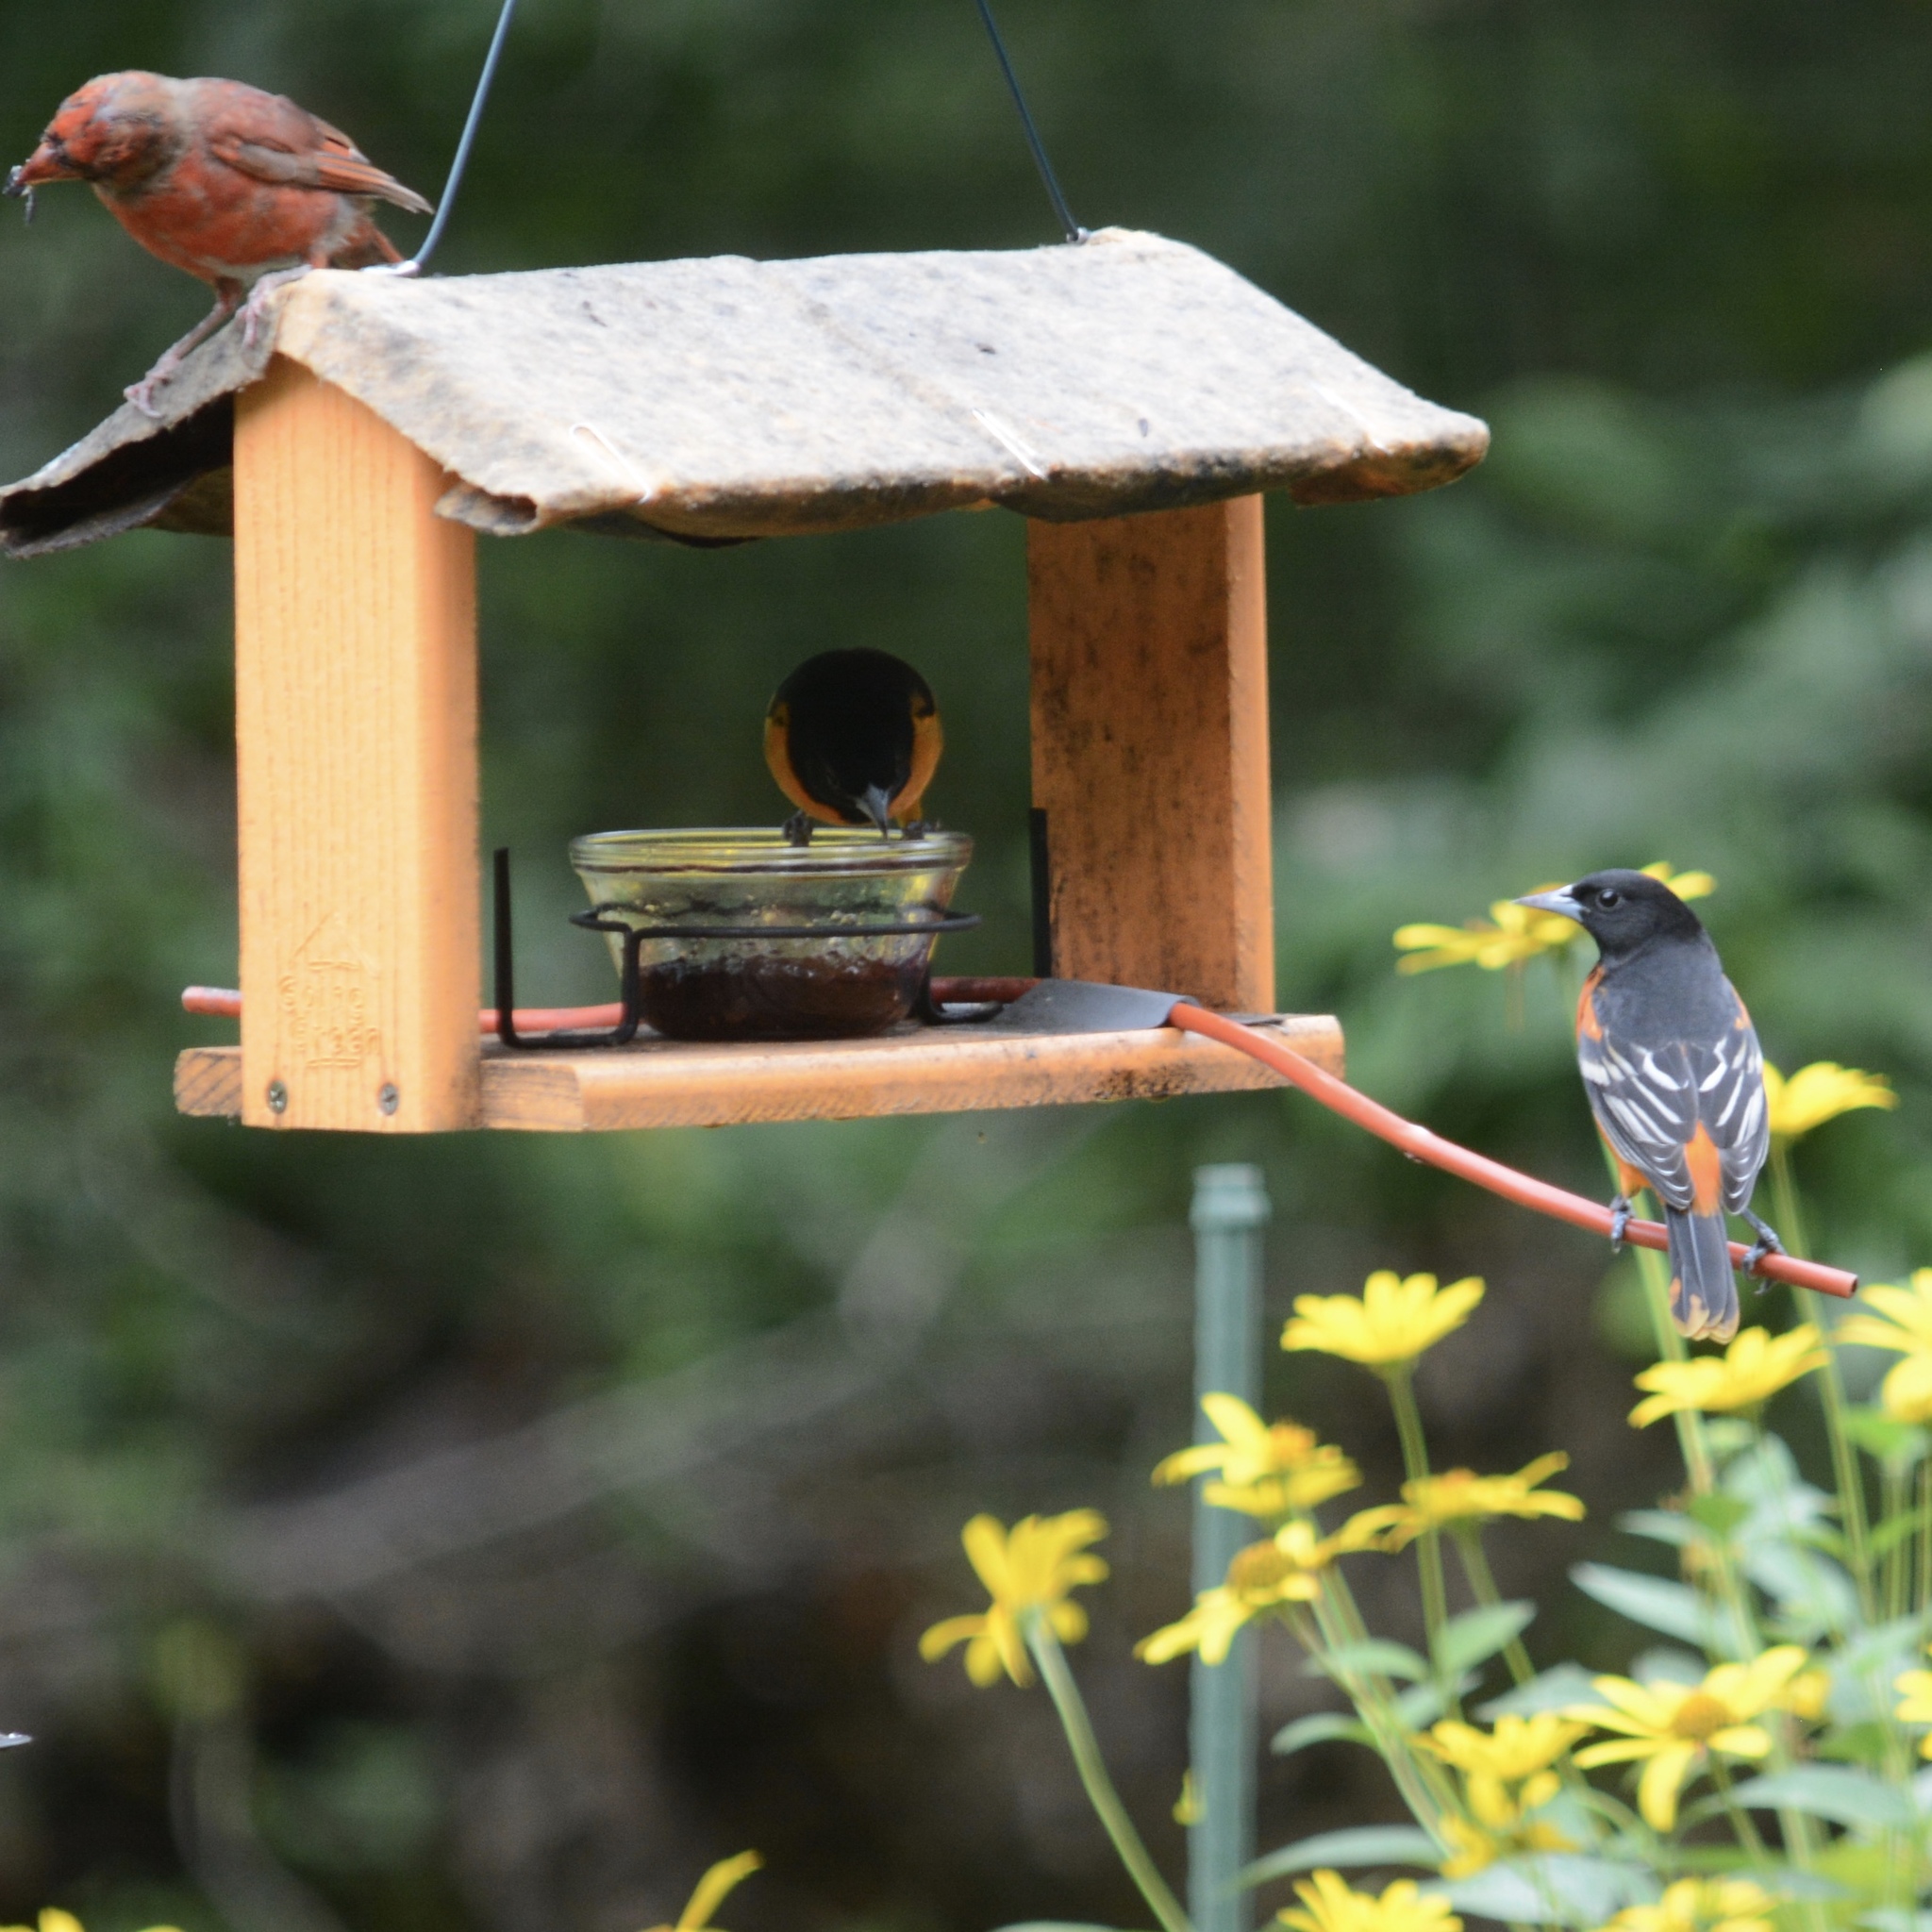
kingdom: Animalia
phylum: Chordata
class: Aves
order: Passeriformes
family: Icteridae
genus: Icterus
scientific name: Icterus galbula
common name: Baltimore oriole
